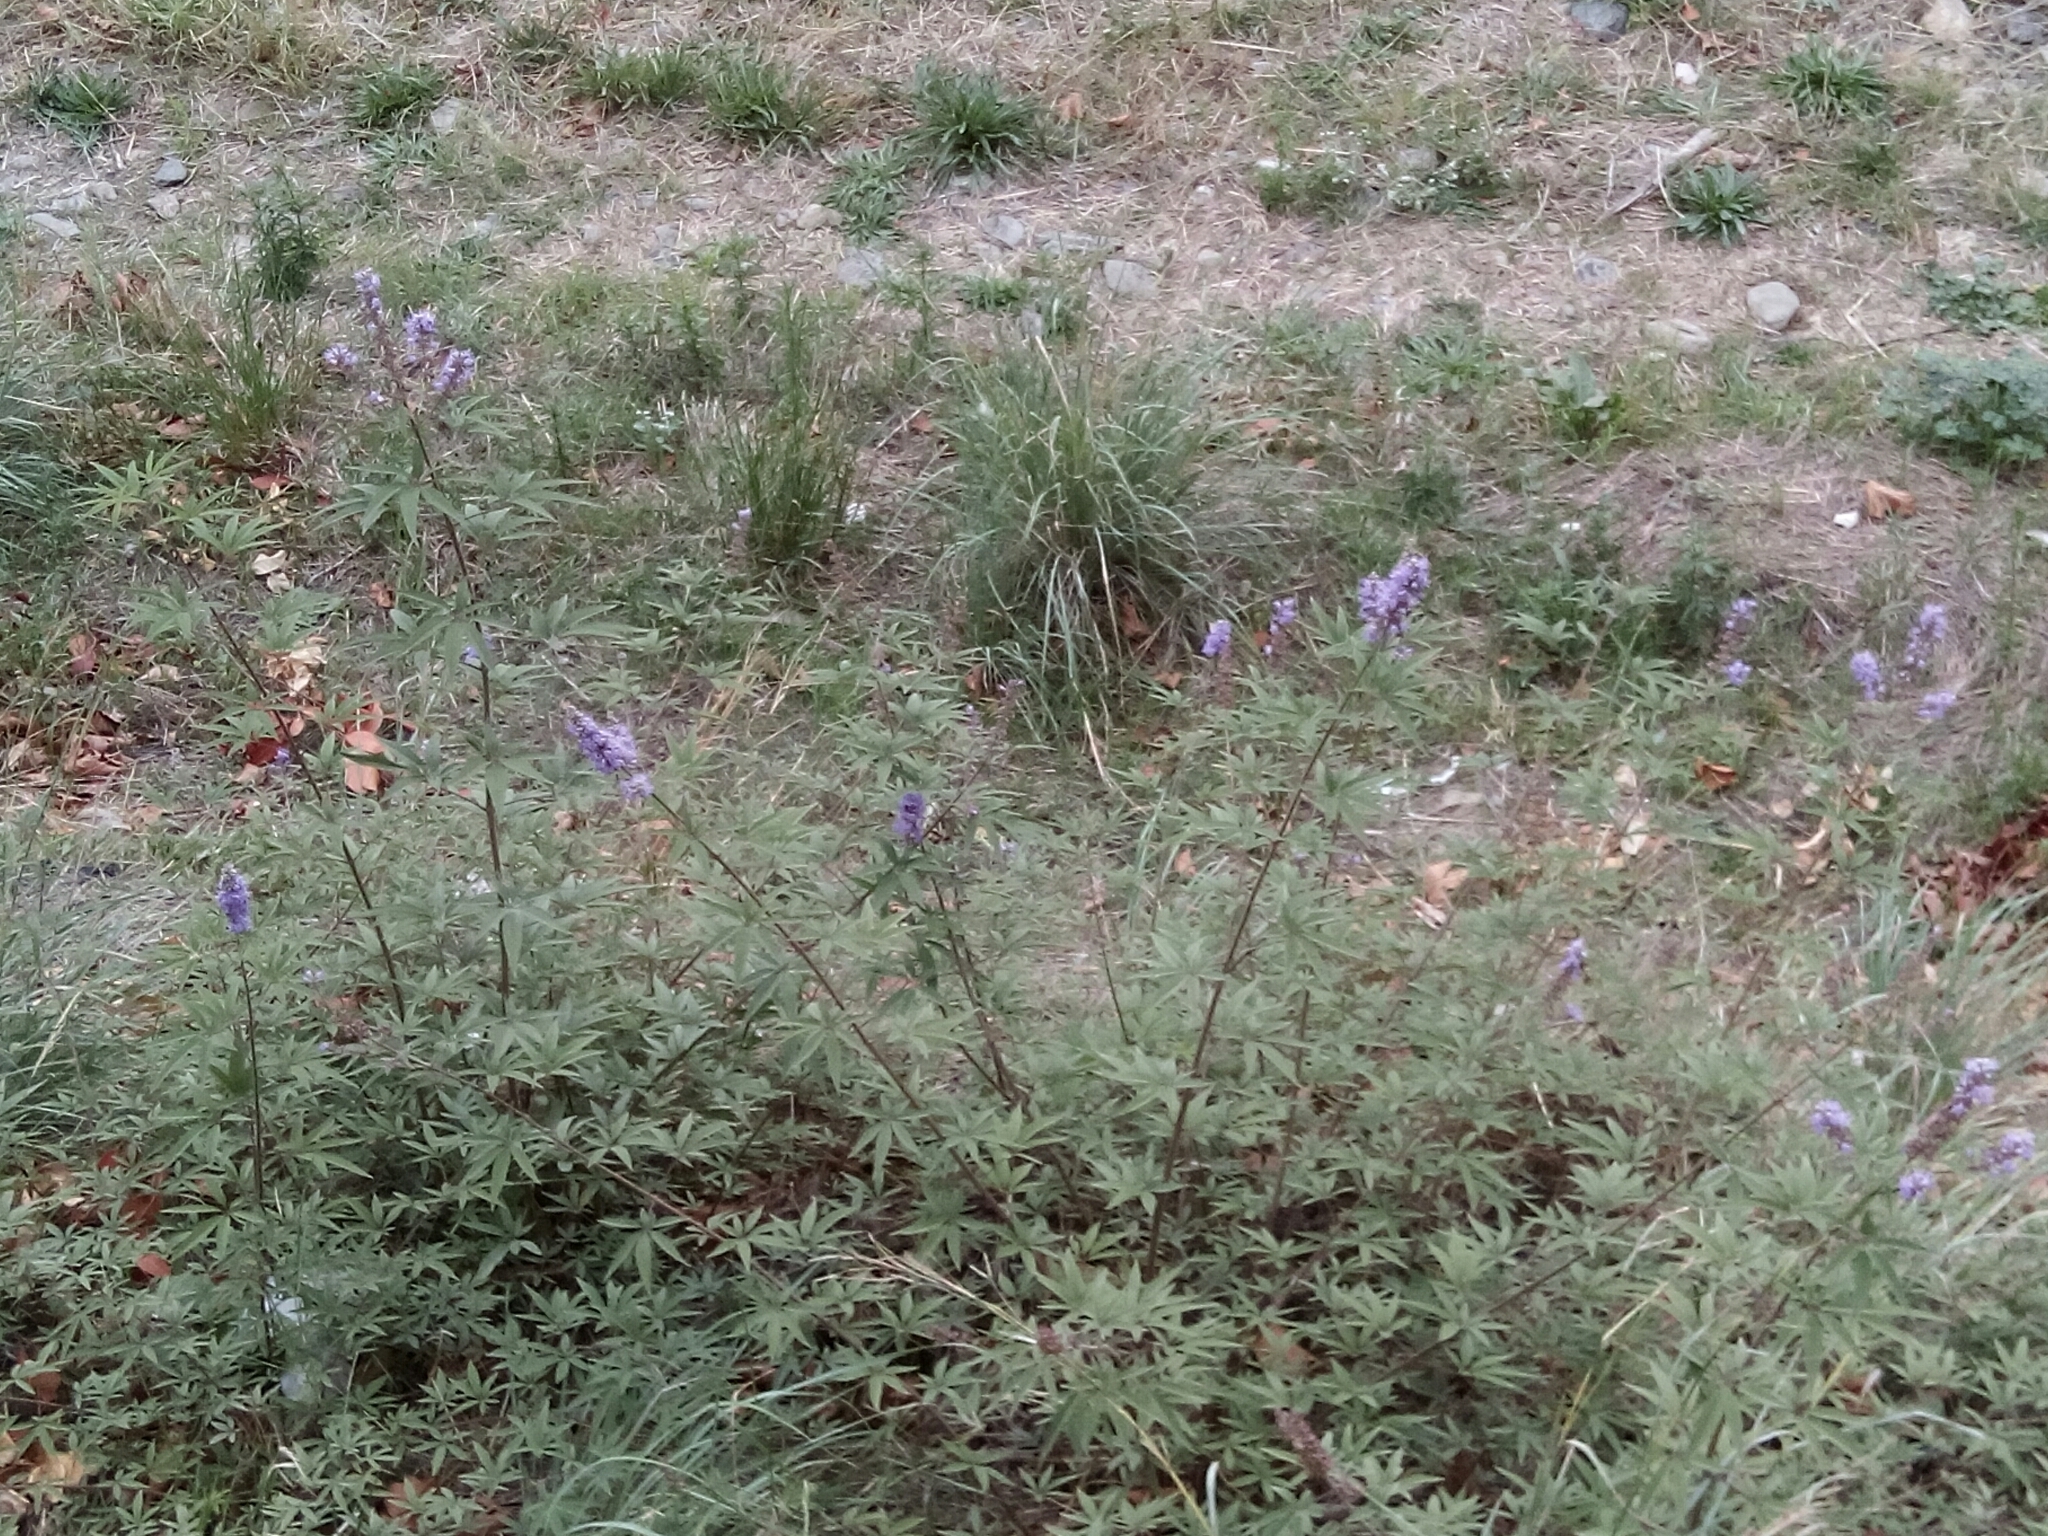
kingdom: Plantae
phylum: Tracheophyta
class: Magnoliopsida
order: Lamiales
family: Lamiaceae
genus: Vitex
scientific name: Vitex agnus-castus
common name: Chasteberry
